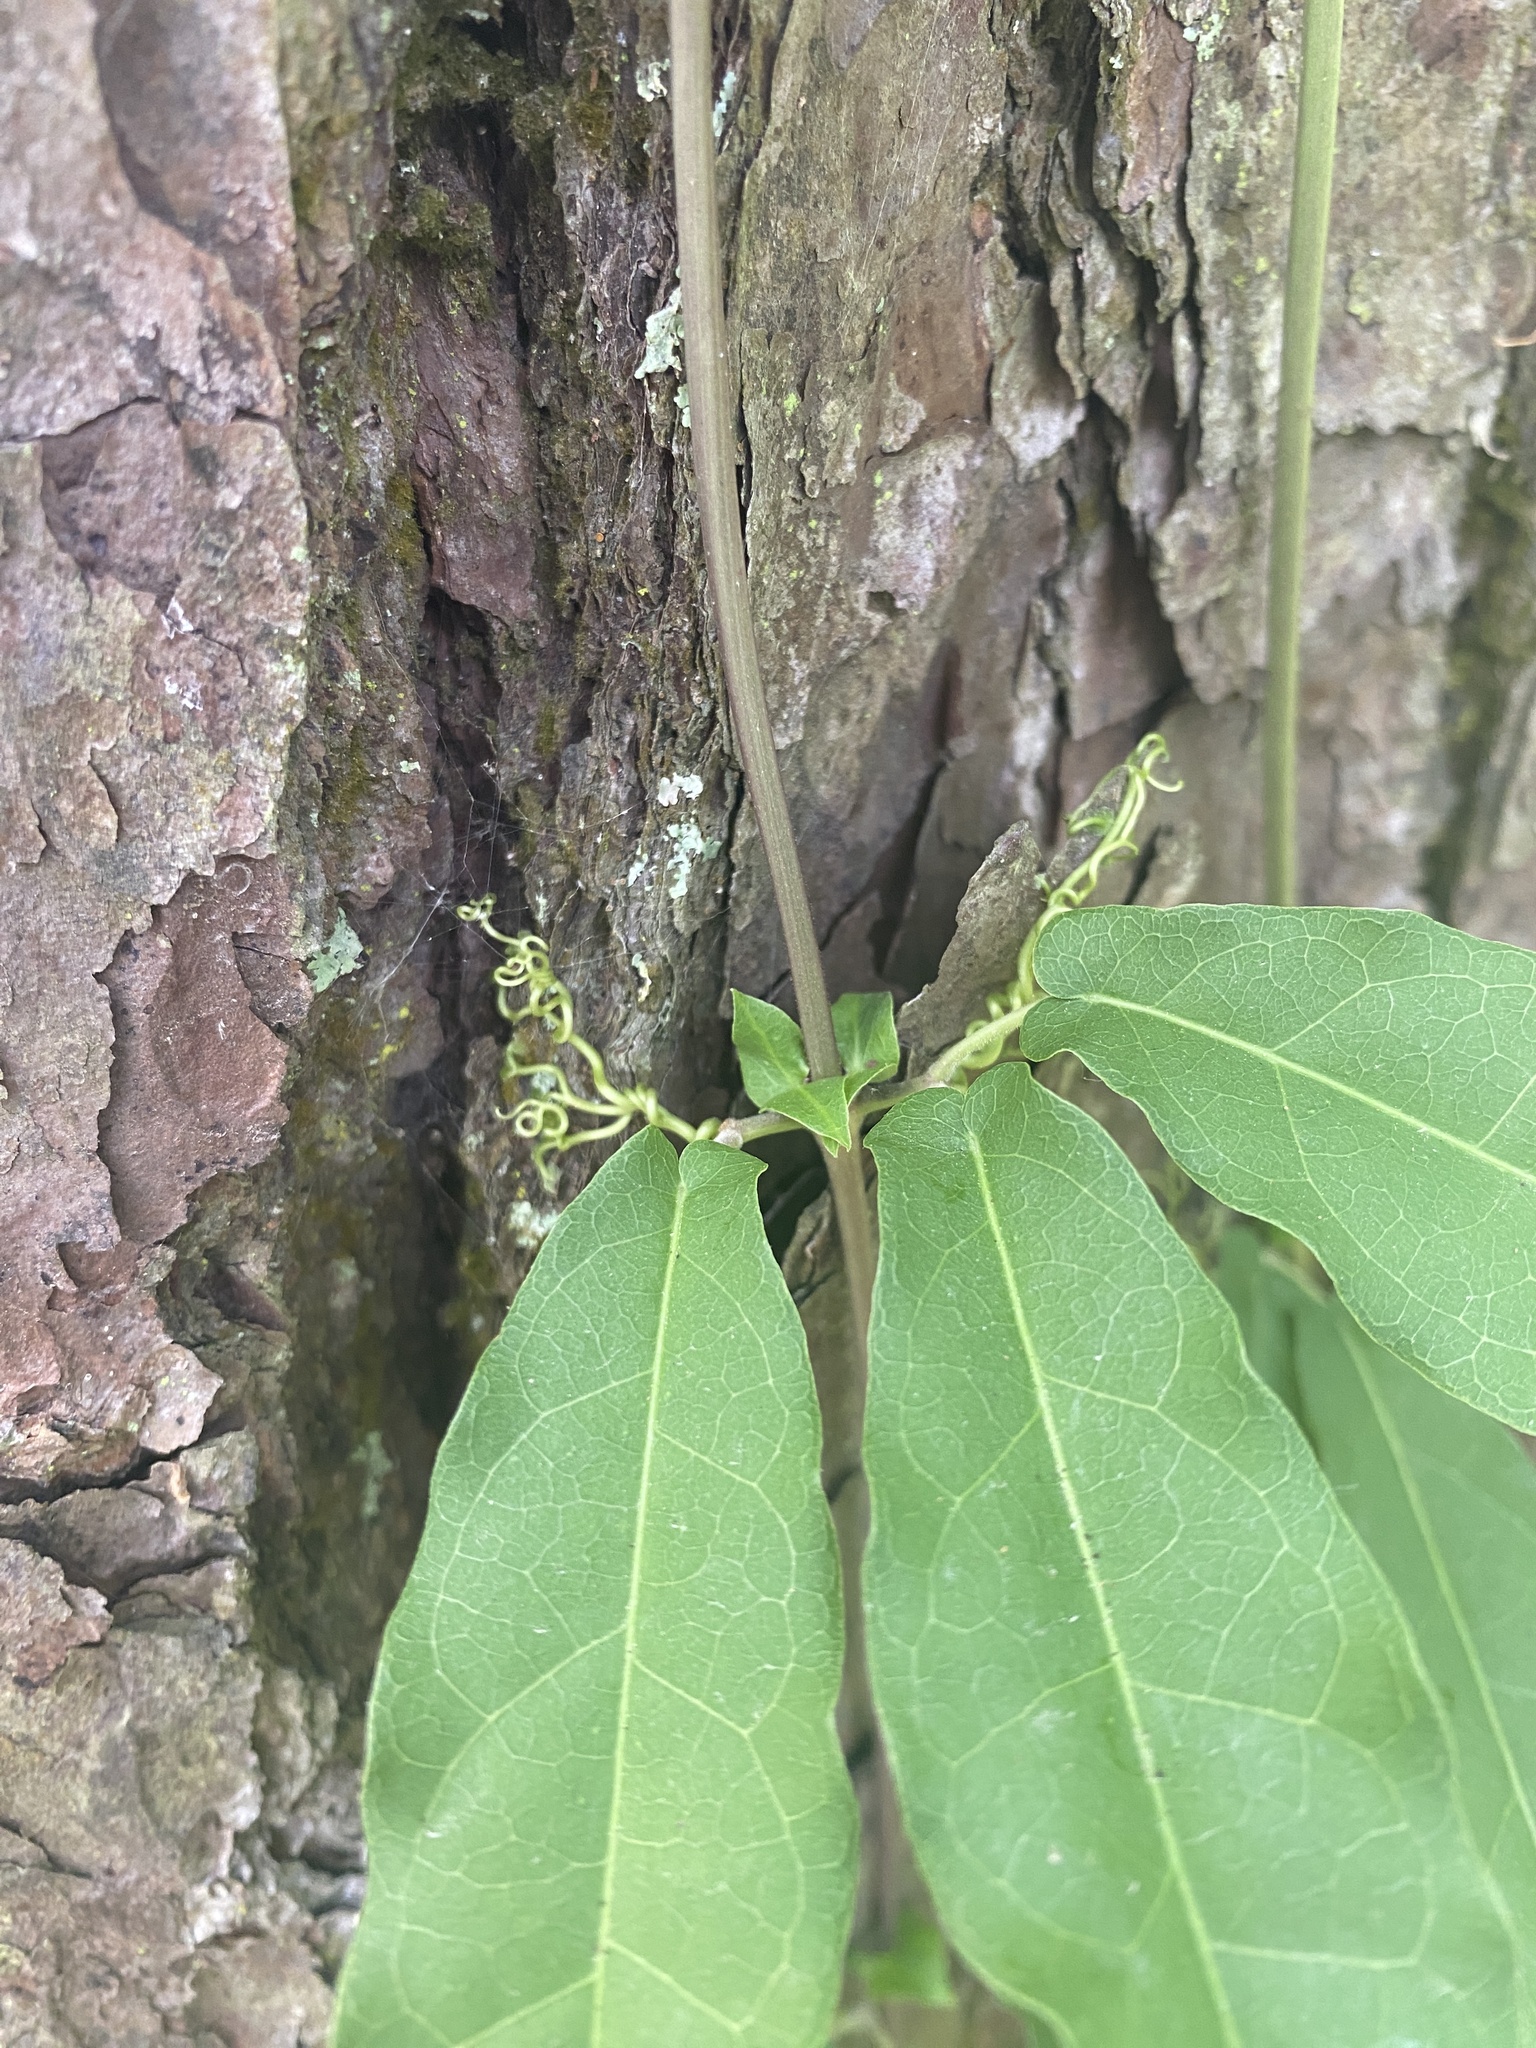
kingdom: Plantae
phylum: Tracheophyta
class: Magnoliopsida
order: Lamiales
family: Bignoniaceae
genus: Bignonia
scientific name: Bignonia capreolata
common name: Crossvine
